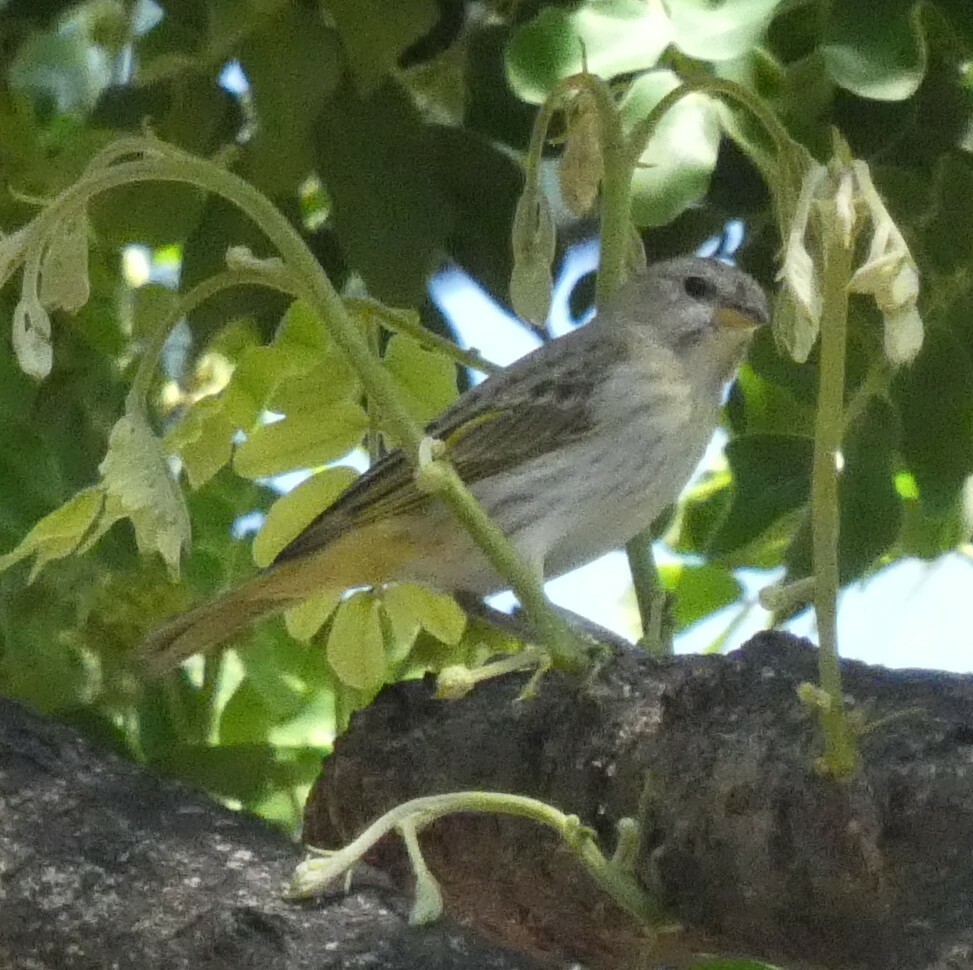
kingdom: Animalia
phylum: Chordata
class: Aves
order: Passeriformes
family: Thraupidae
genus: Sicalis
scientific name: Sicalis flaveola
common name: Saffron finch
